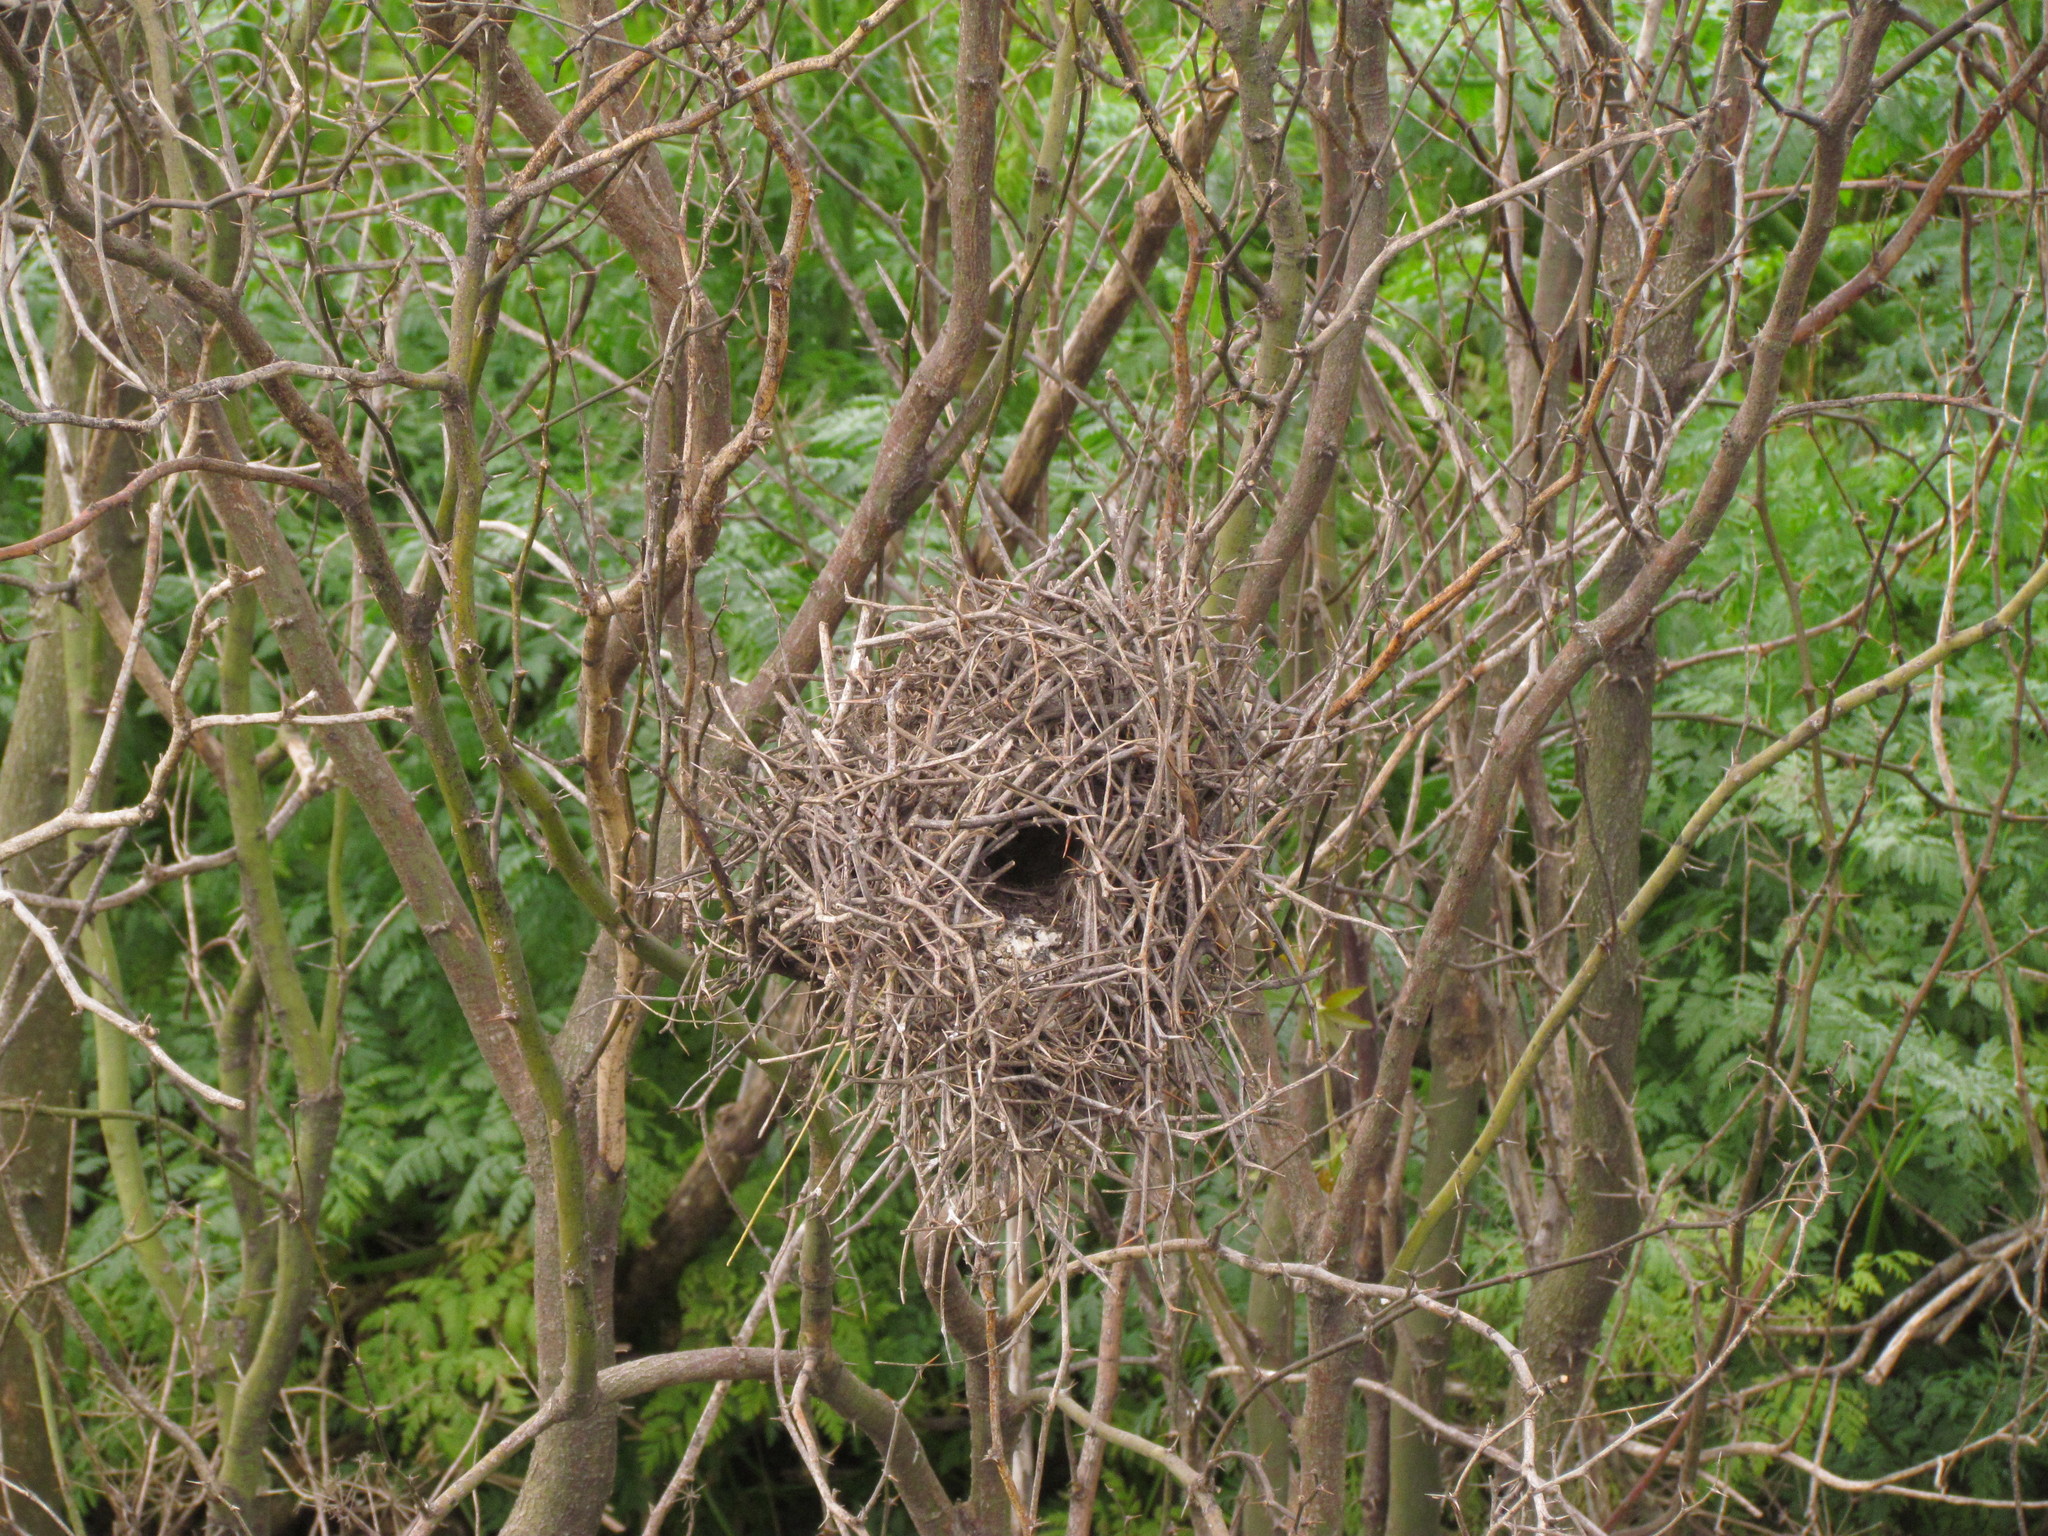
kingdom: Animalia
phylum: Chordata
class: Aves
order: Passeriformes
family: Furnariidae
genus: Phacellodomus
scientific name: Phacellodomus striaticollis
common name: Freckle-breasted thornbird
